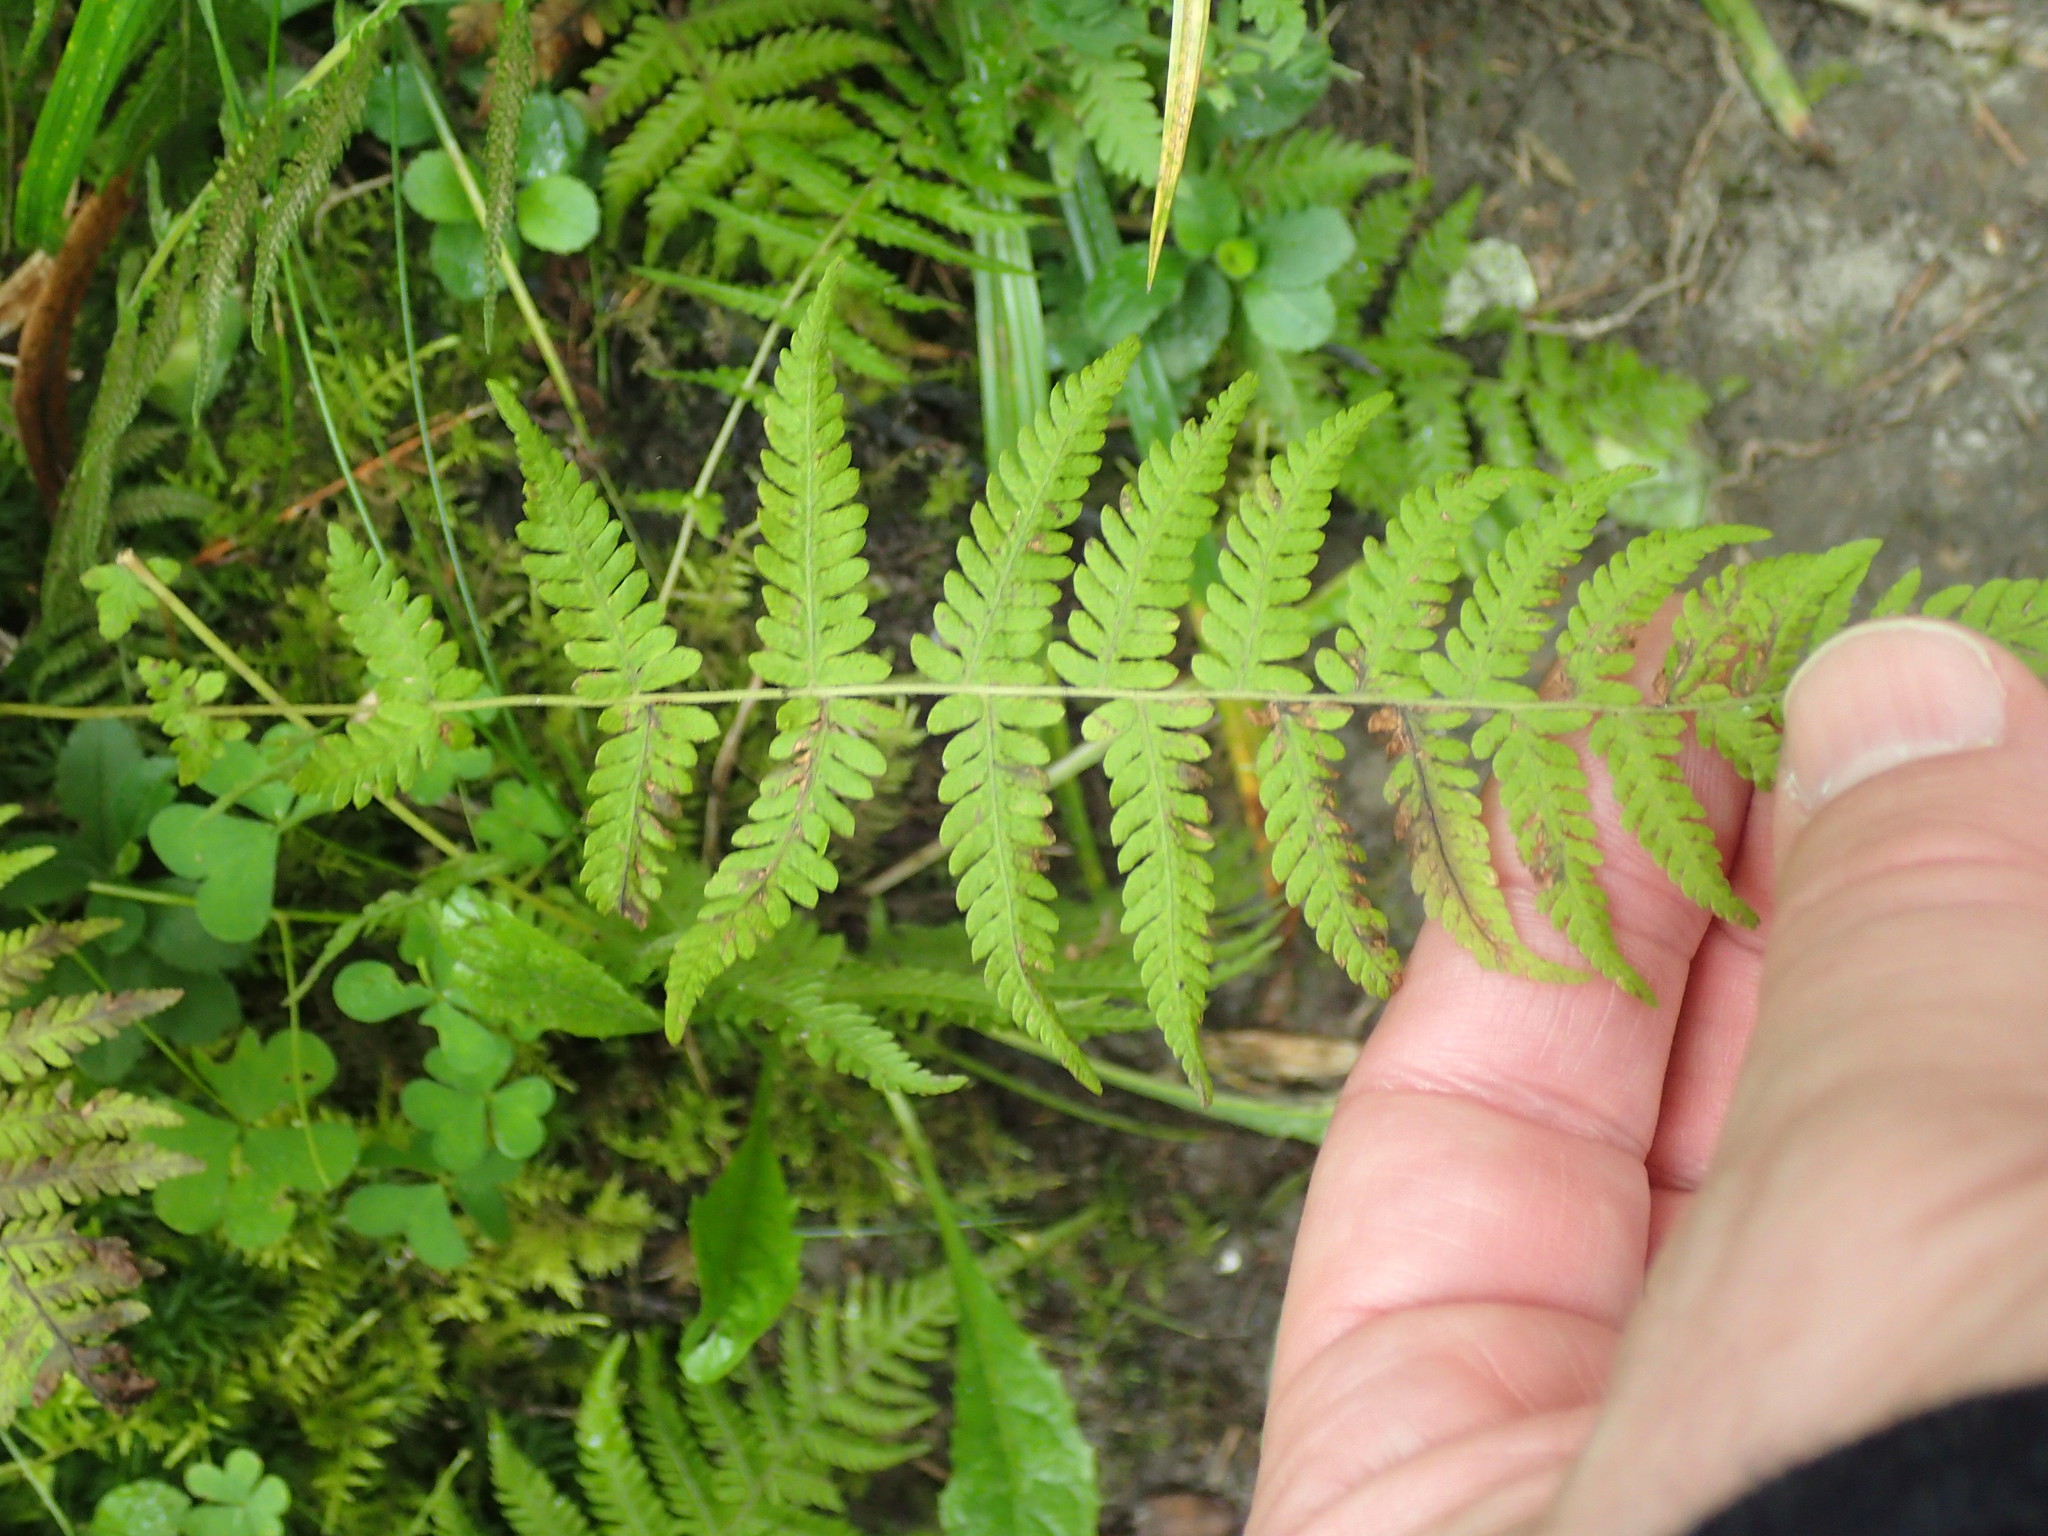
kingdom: Plantae
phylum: Tracheophyta
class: Polypodiopsida
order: Polypodiales
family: Thelypteridaceae
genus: Amauropelta
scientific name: Amauropelta noveboracensis
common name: New york fern
